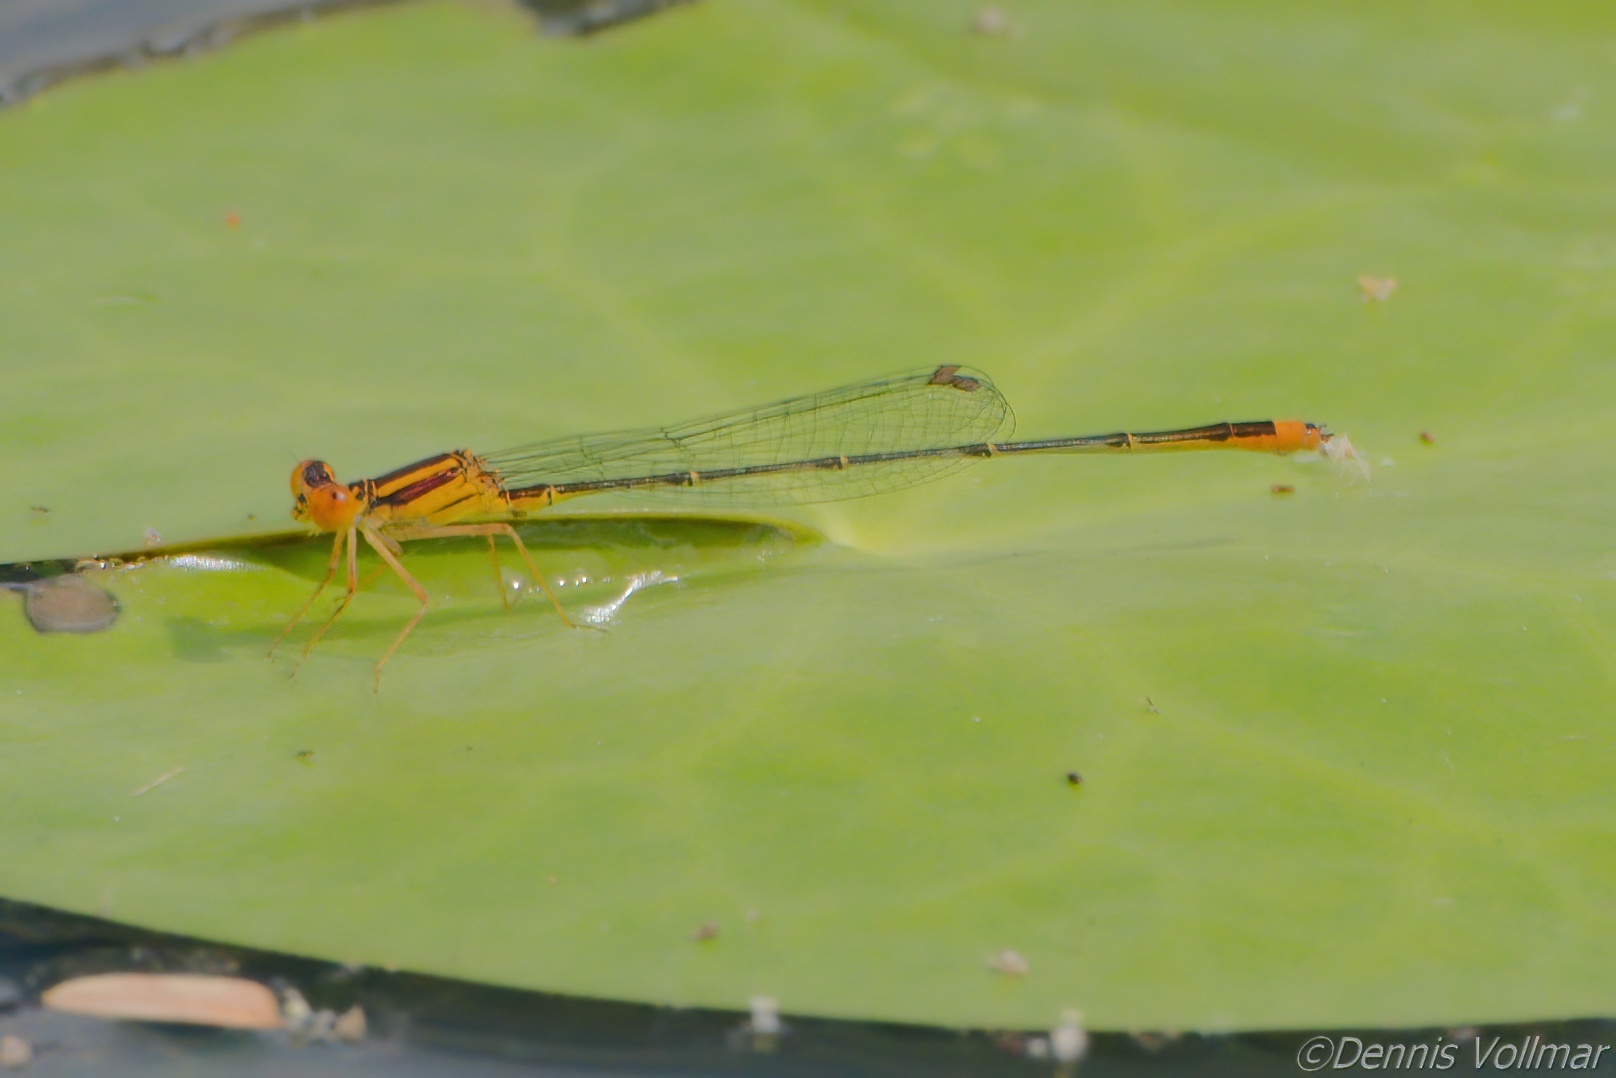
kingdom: Animalia
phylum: Arthropoda
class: Insecta
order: Odonata
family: Coenagrionidae
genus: Enallagma
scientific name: Enallagma pollutum
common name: Florida bluet
